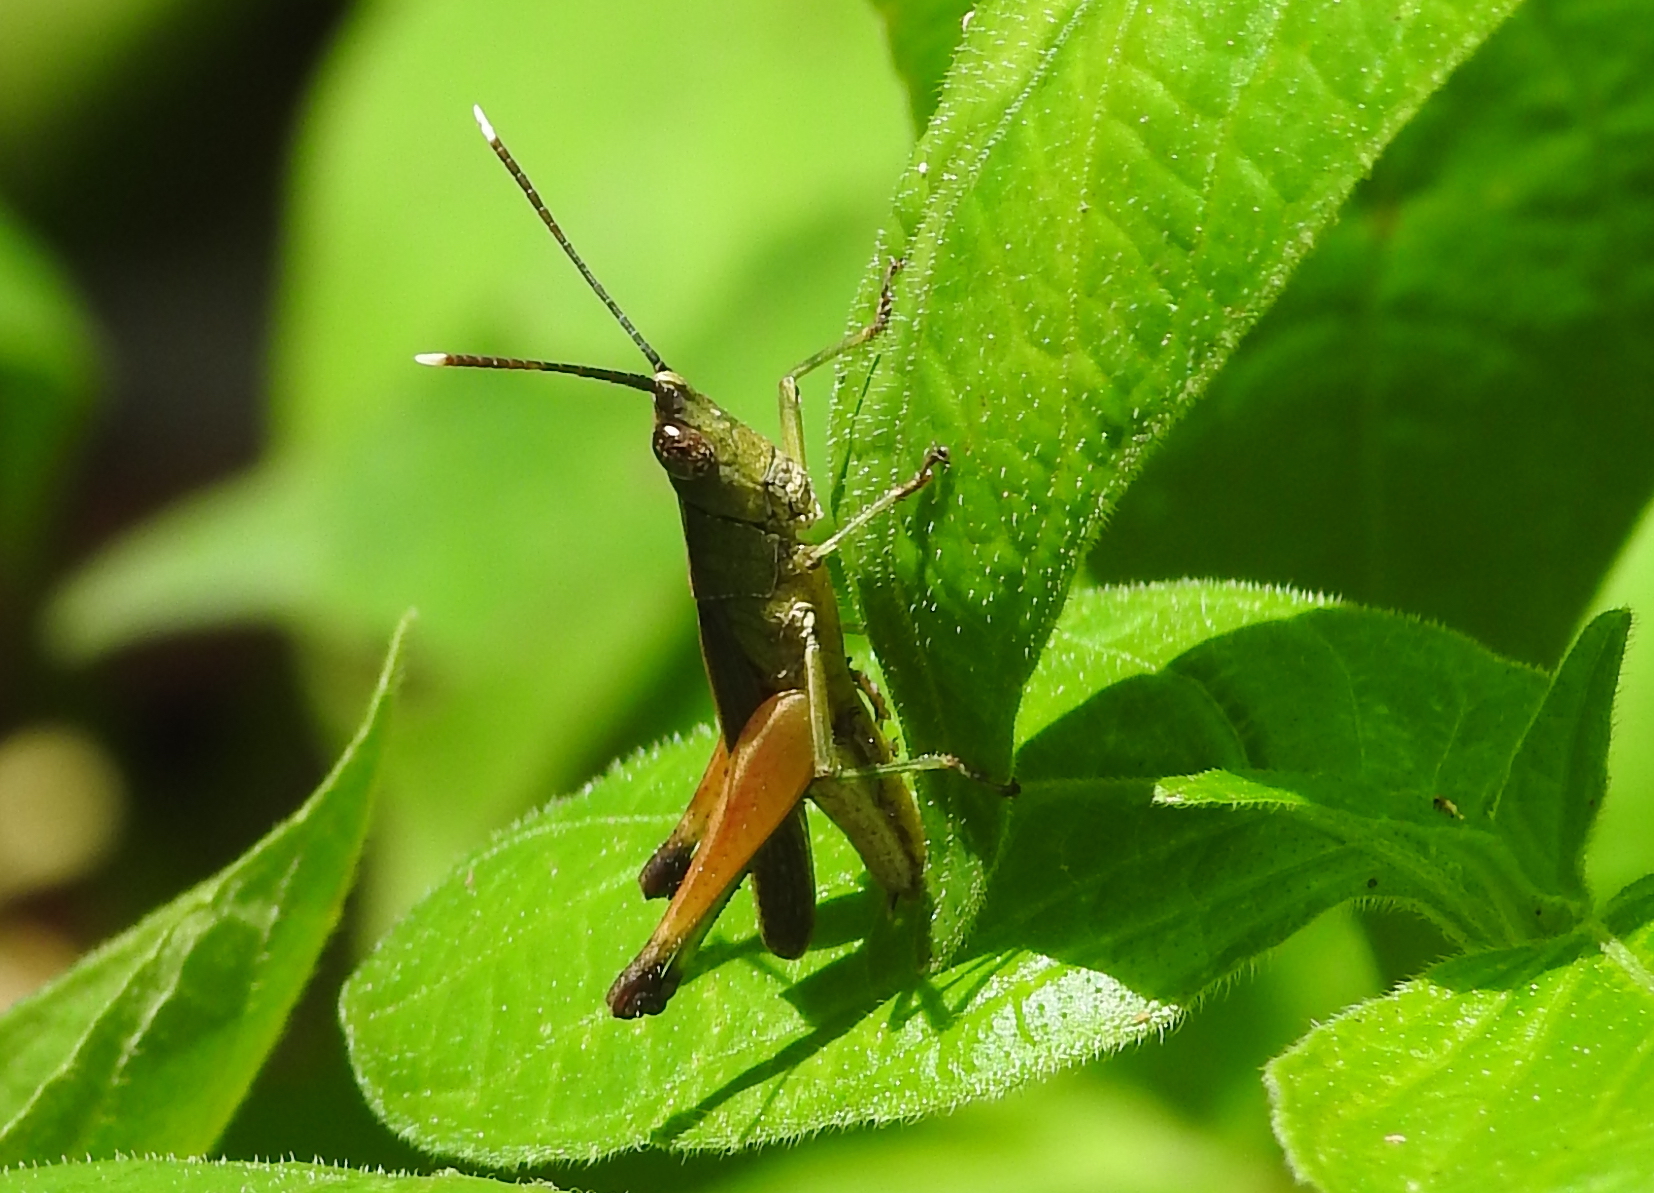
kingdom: Animalia
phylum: Arthropoda
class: Insecta
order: Orthoptera
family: Acrididae
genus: Phlaeoba
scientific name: Phlaeoba antennata
